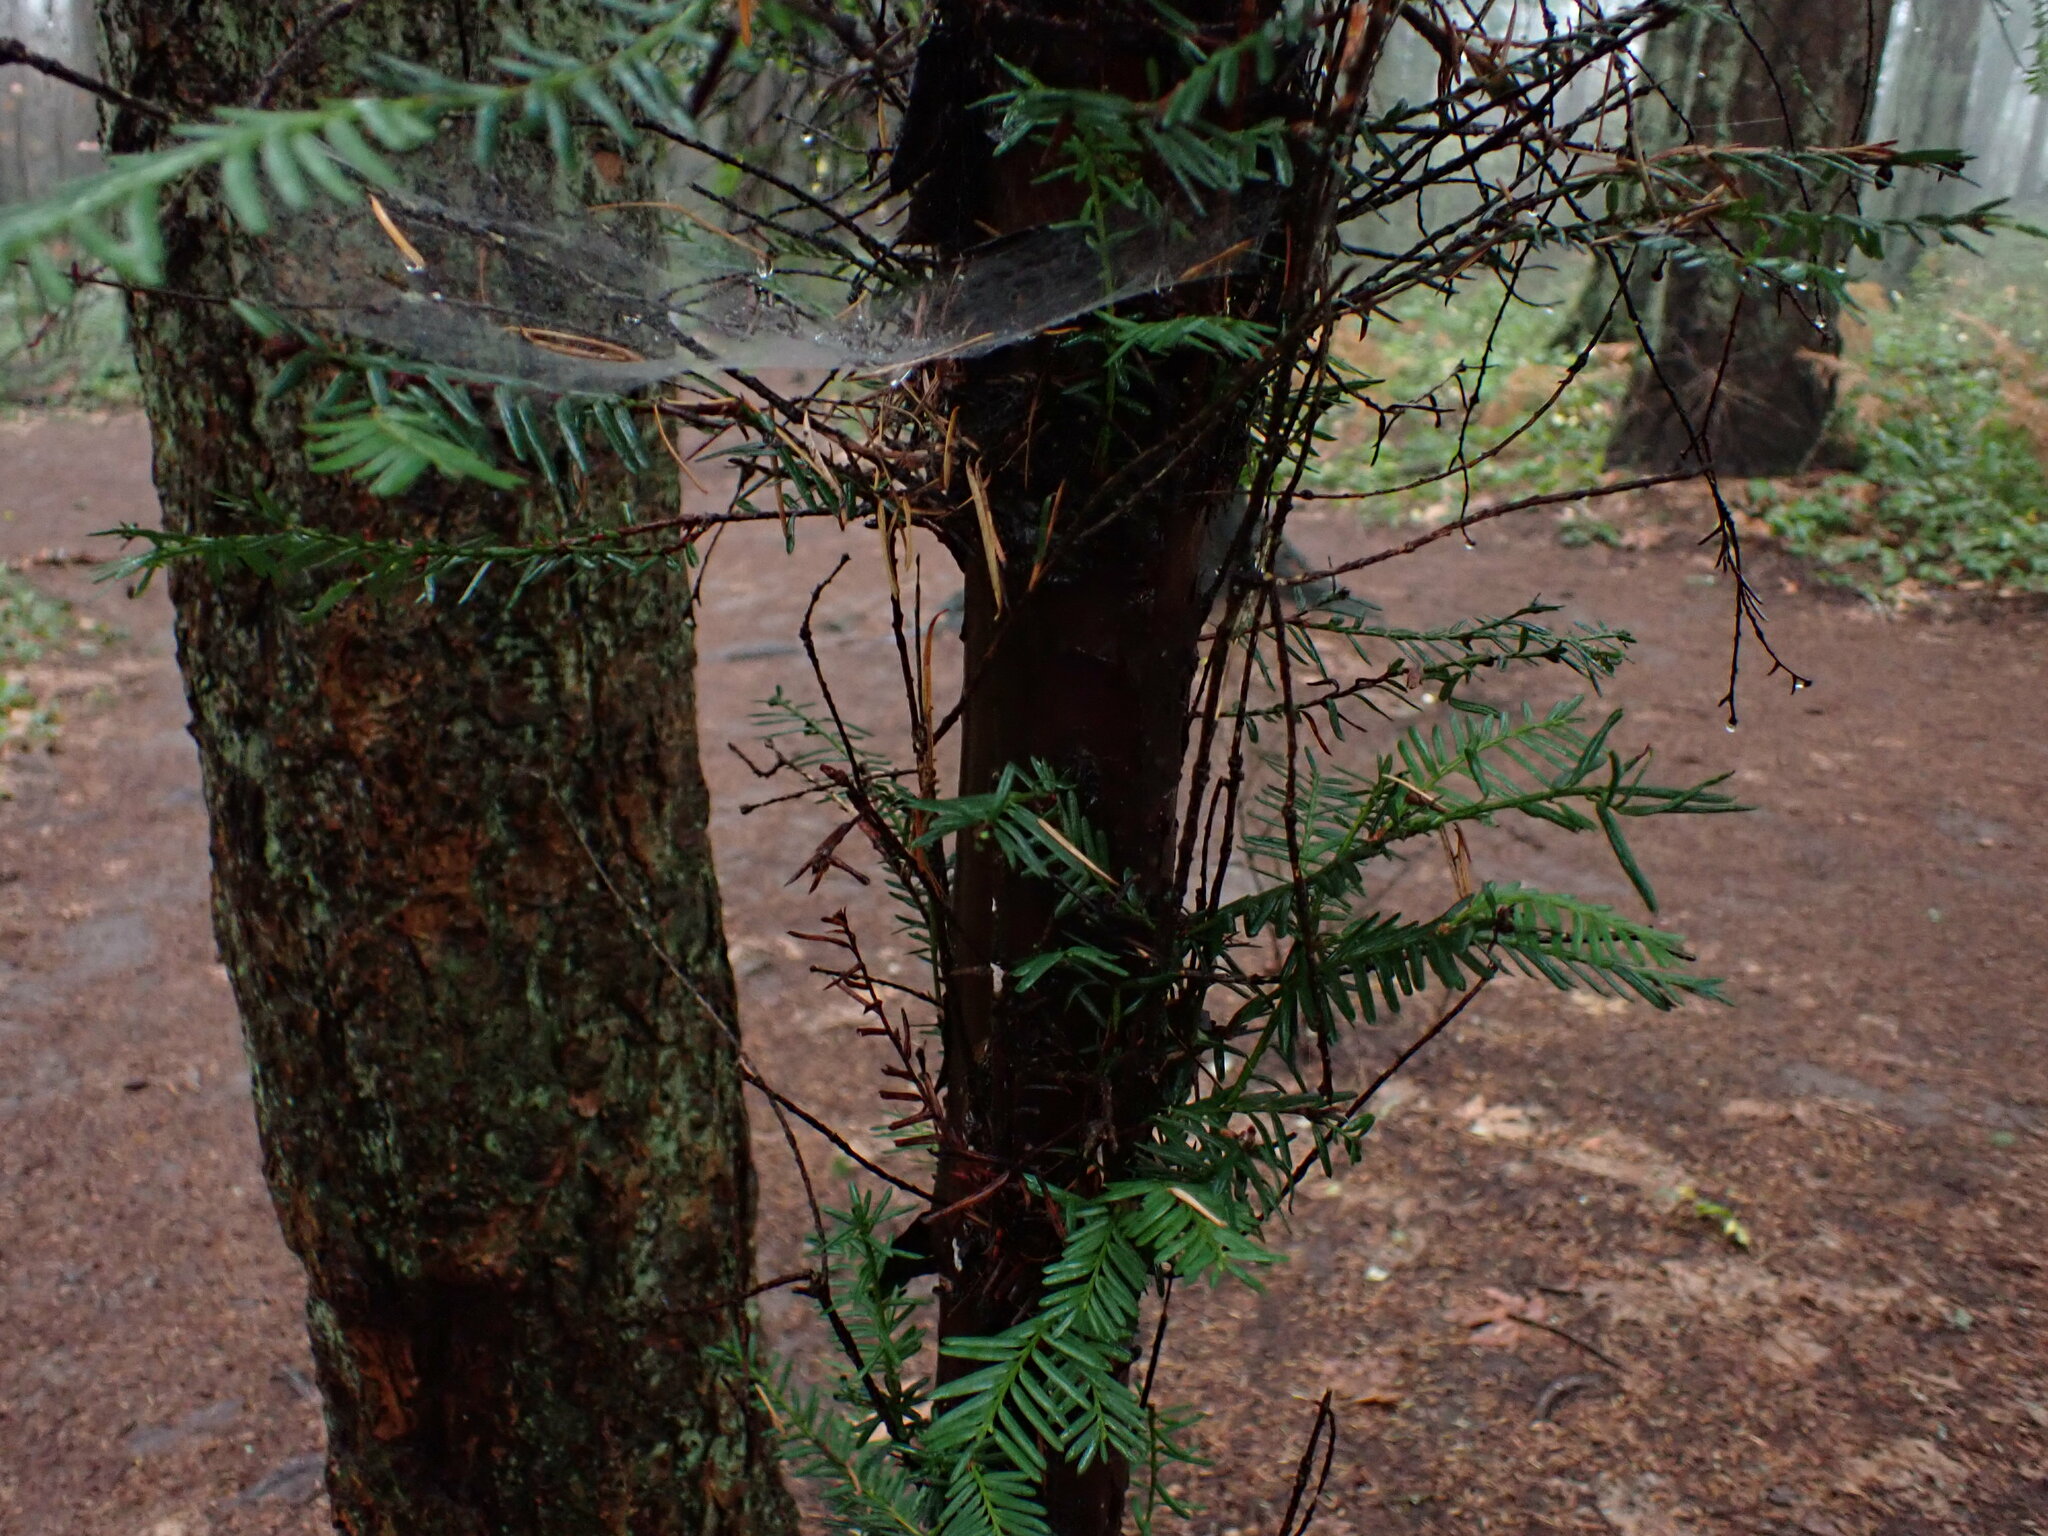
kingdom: Plantae
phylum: Tracheophyta
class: Pinopsida
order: Pinales
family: Taxaceae
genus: Taxus
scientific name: Taxus brevifolia
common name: Pacific yew
